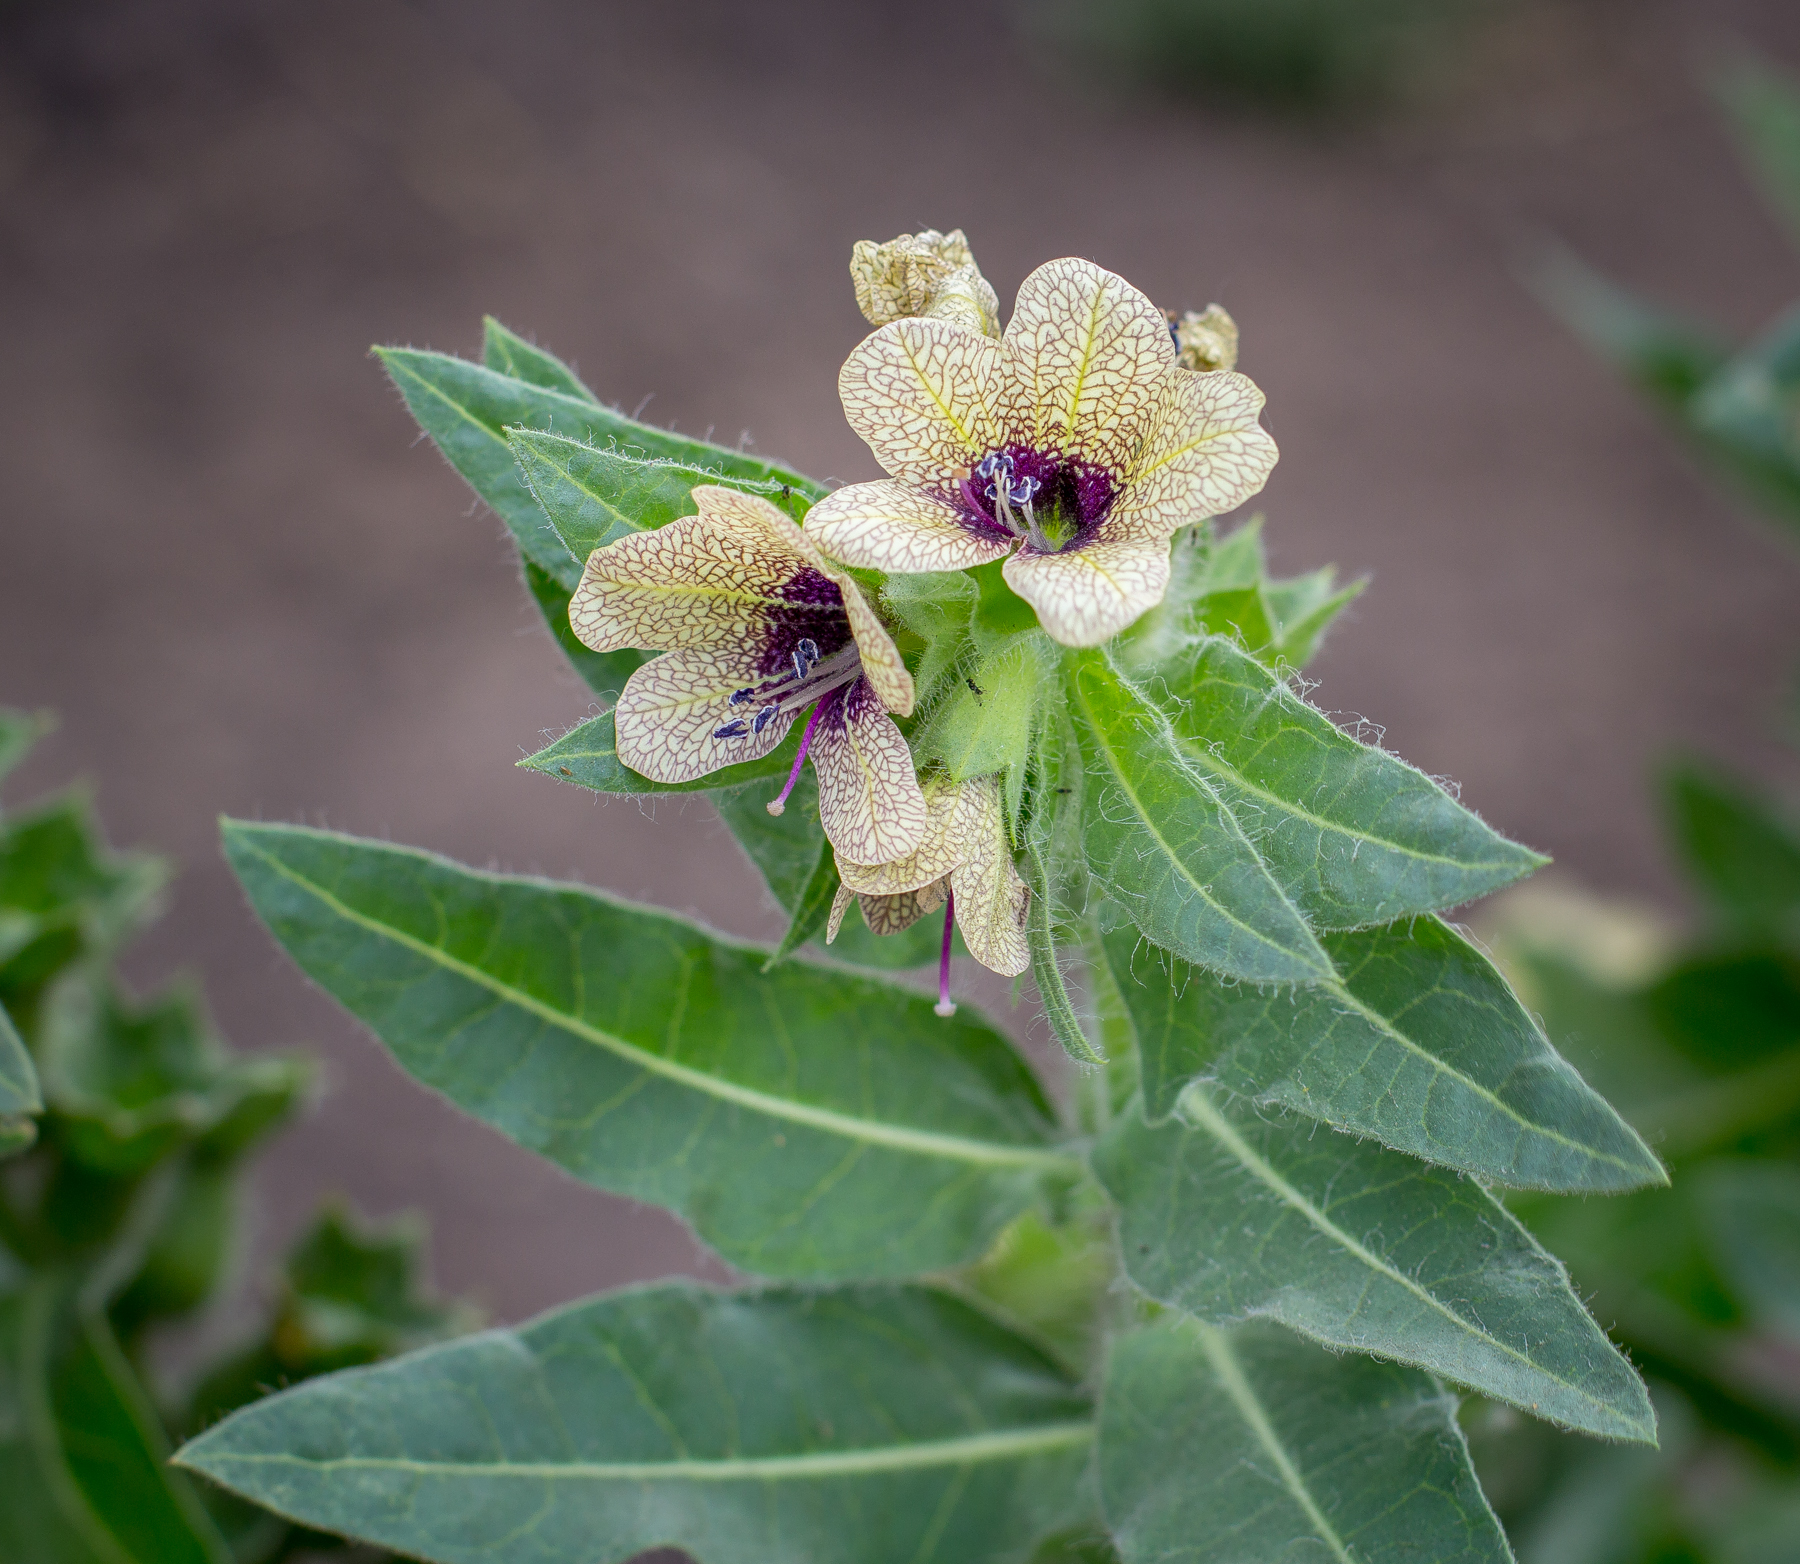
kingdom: Plantae
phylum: Tracheophyta
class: Magnoliopsida
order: Solanales
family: Solanaceae
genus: Hyoscyamus
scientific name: Hyoscyamus niger
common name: Henbane
